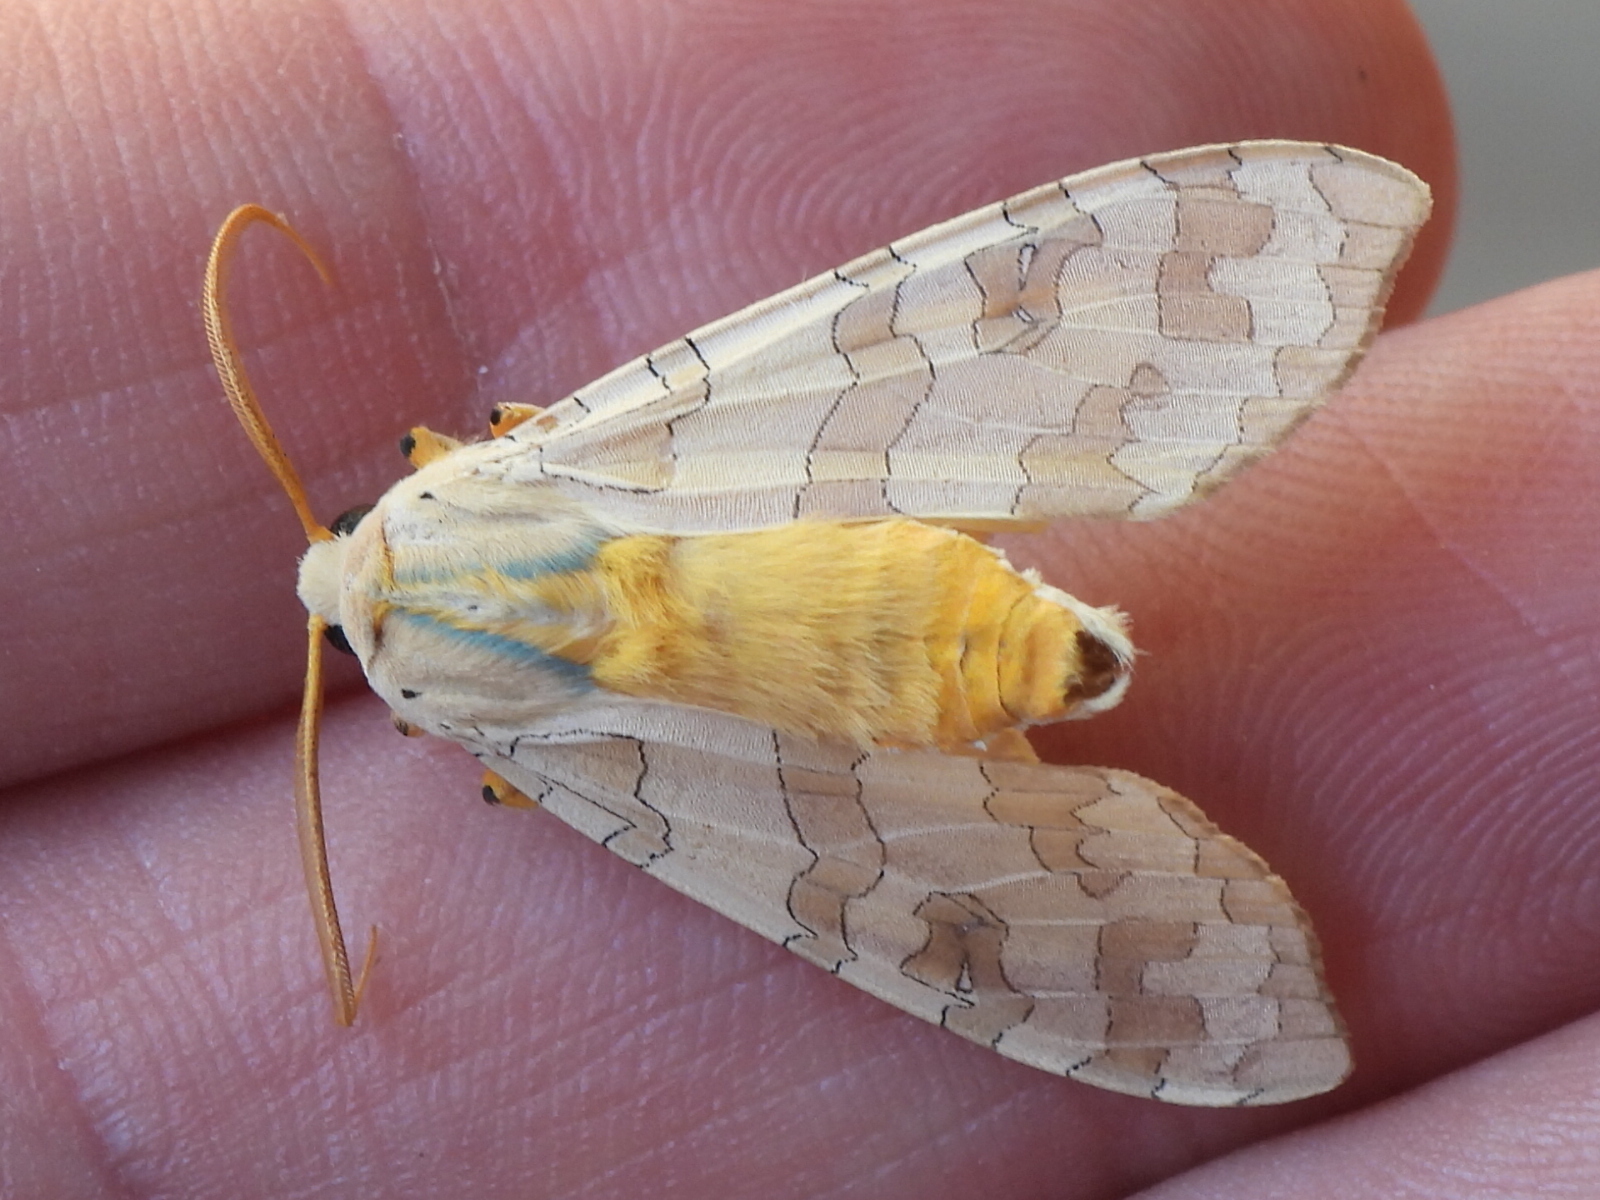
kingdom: Animalia
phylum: Arthropoda
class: Insecta
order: Lepidoptera
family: Erebidae
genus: Halysidota
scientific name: Halysidota
